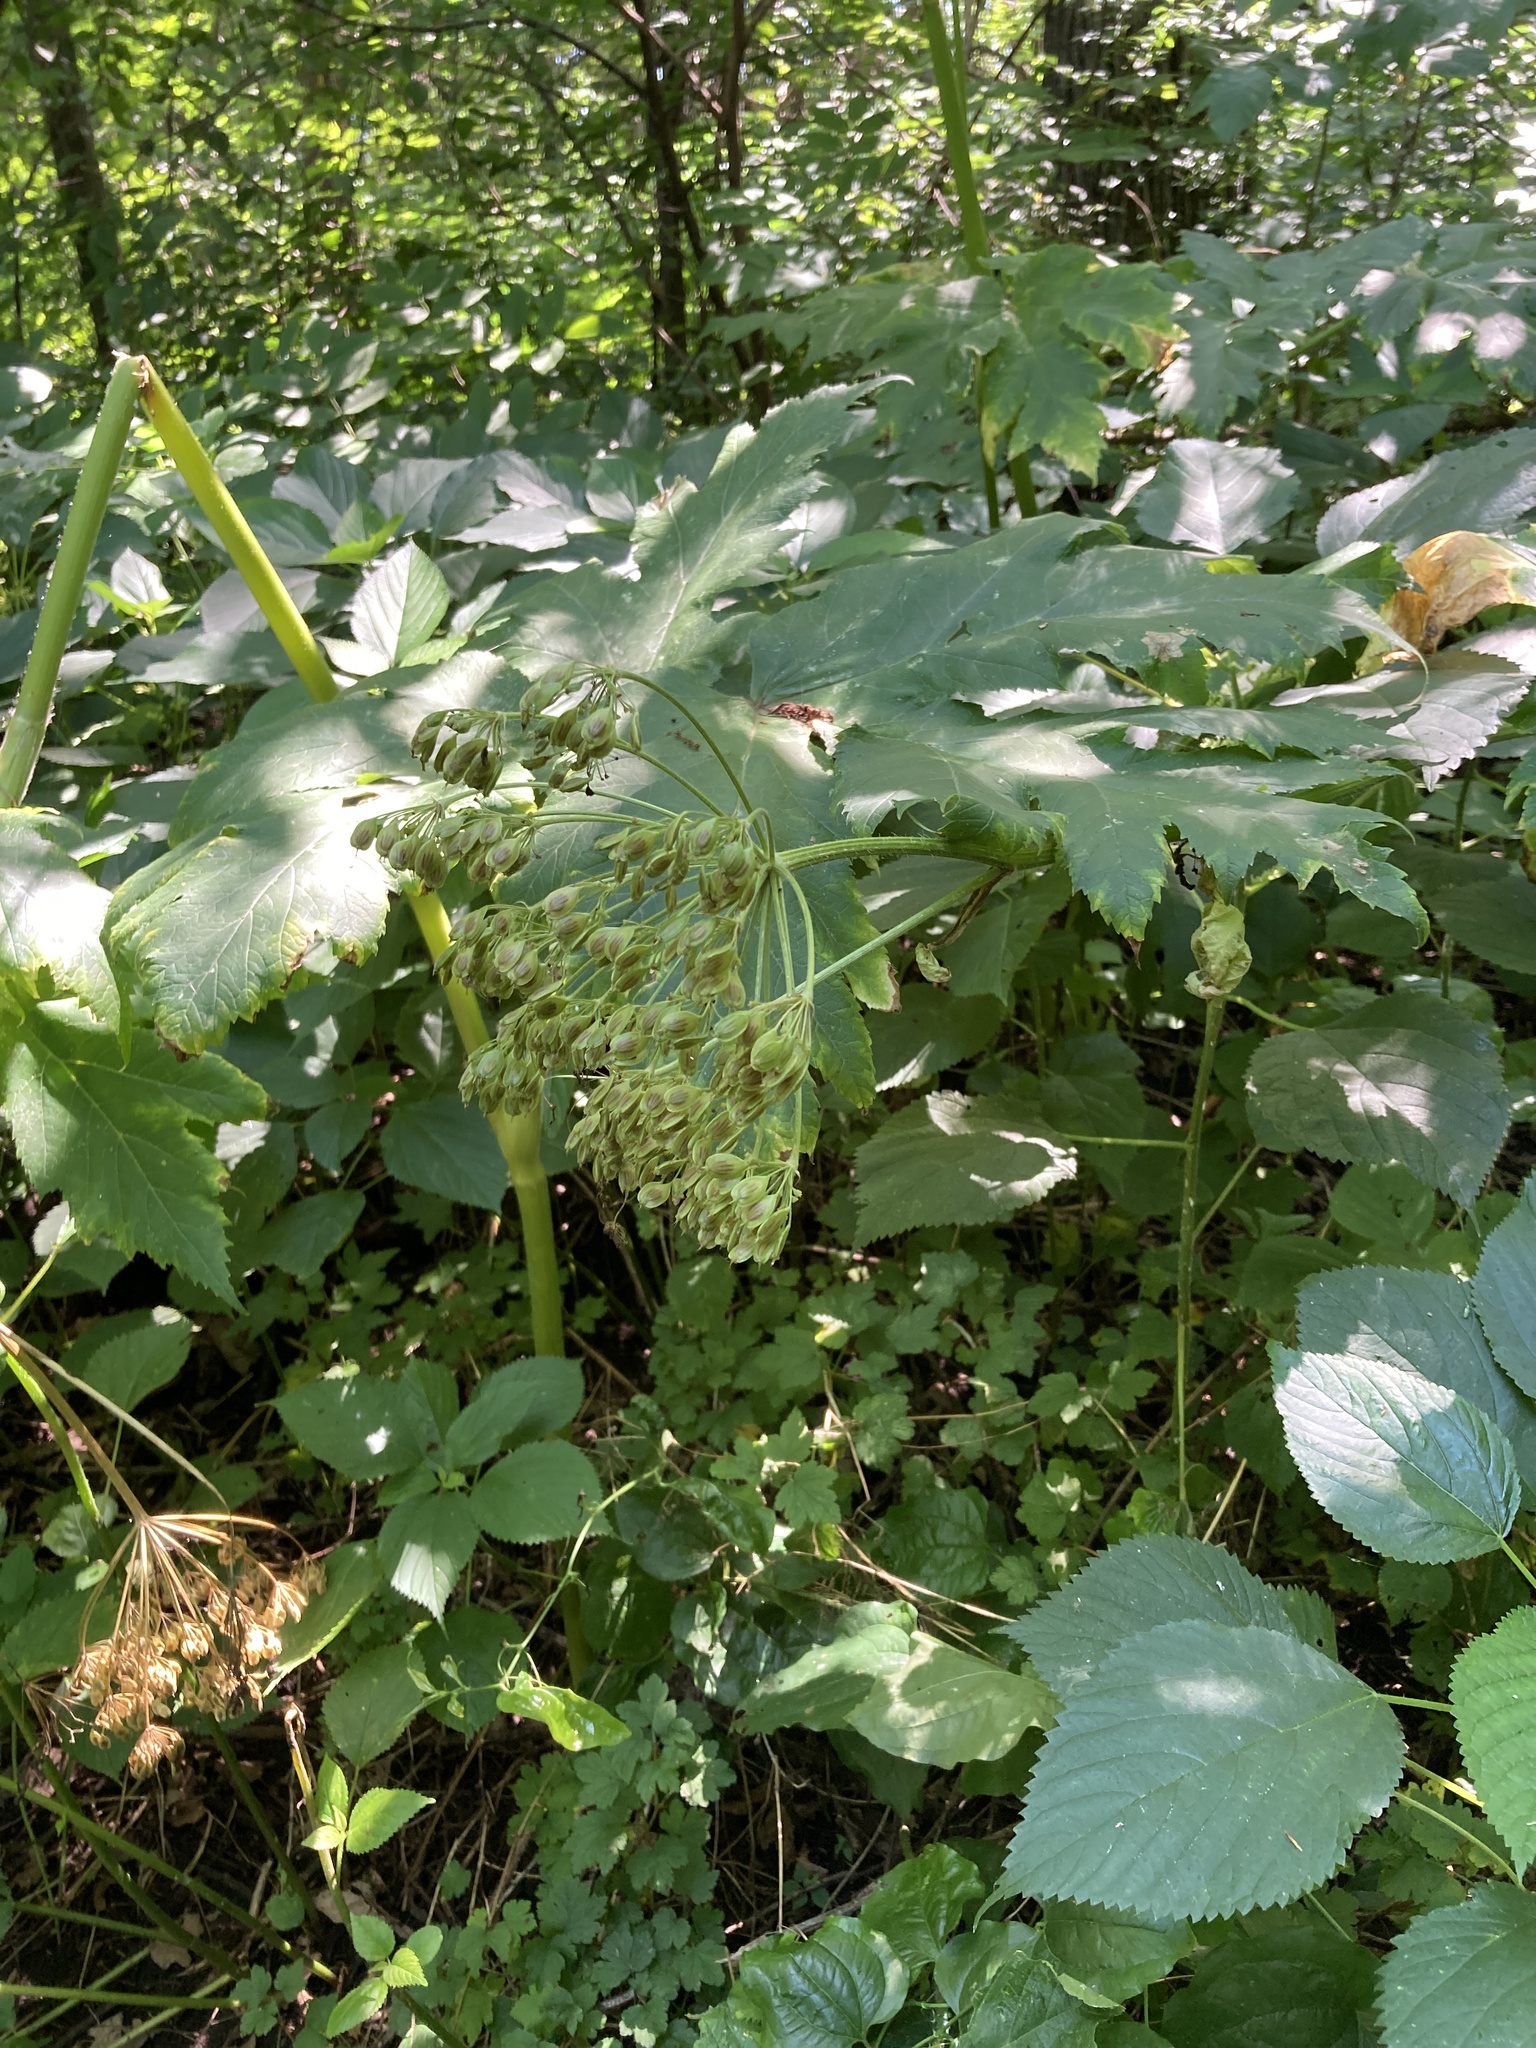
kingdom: Plantae
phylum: Tracheophyta
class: Magnoliopsida
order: Apiales
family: Apiaceae
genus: Heracleum
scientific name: Heracleum maximum
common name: American cow parsnip
